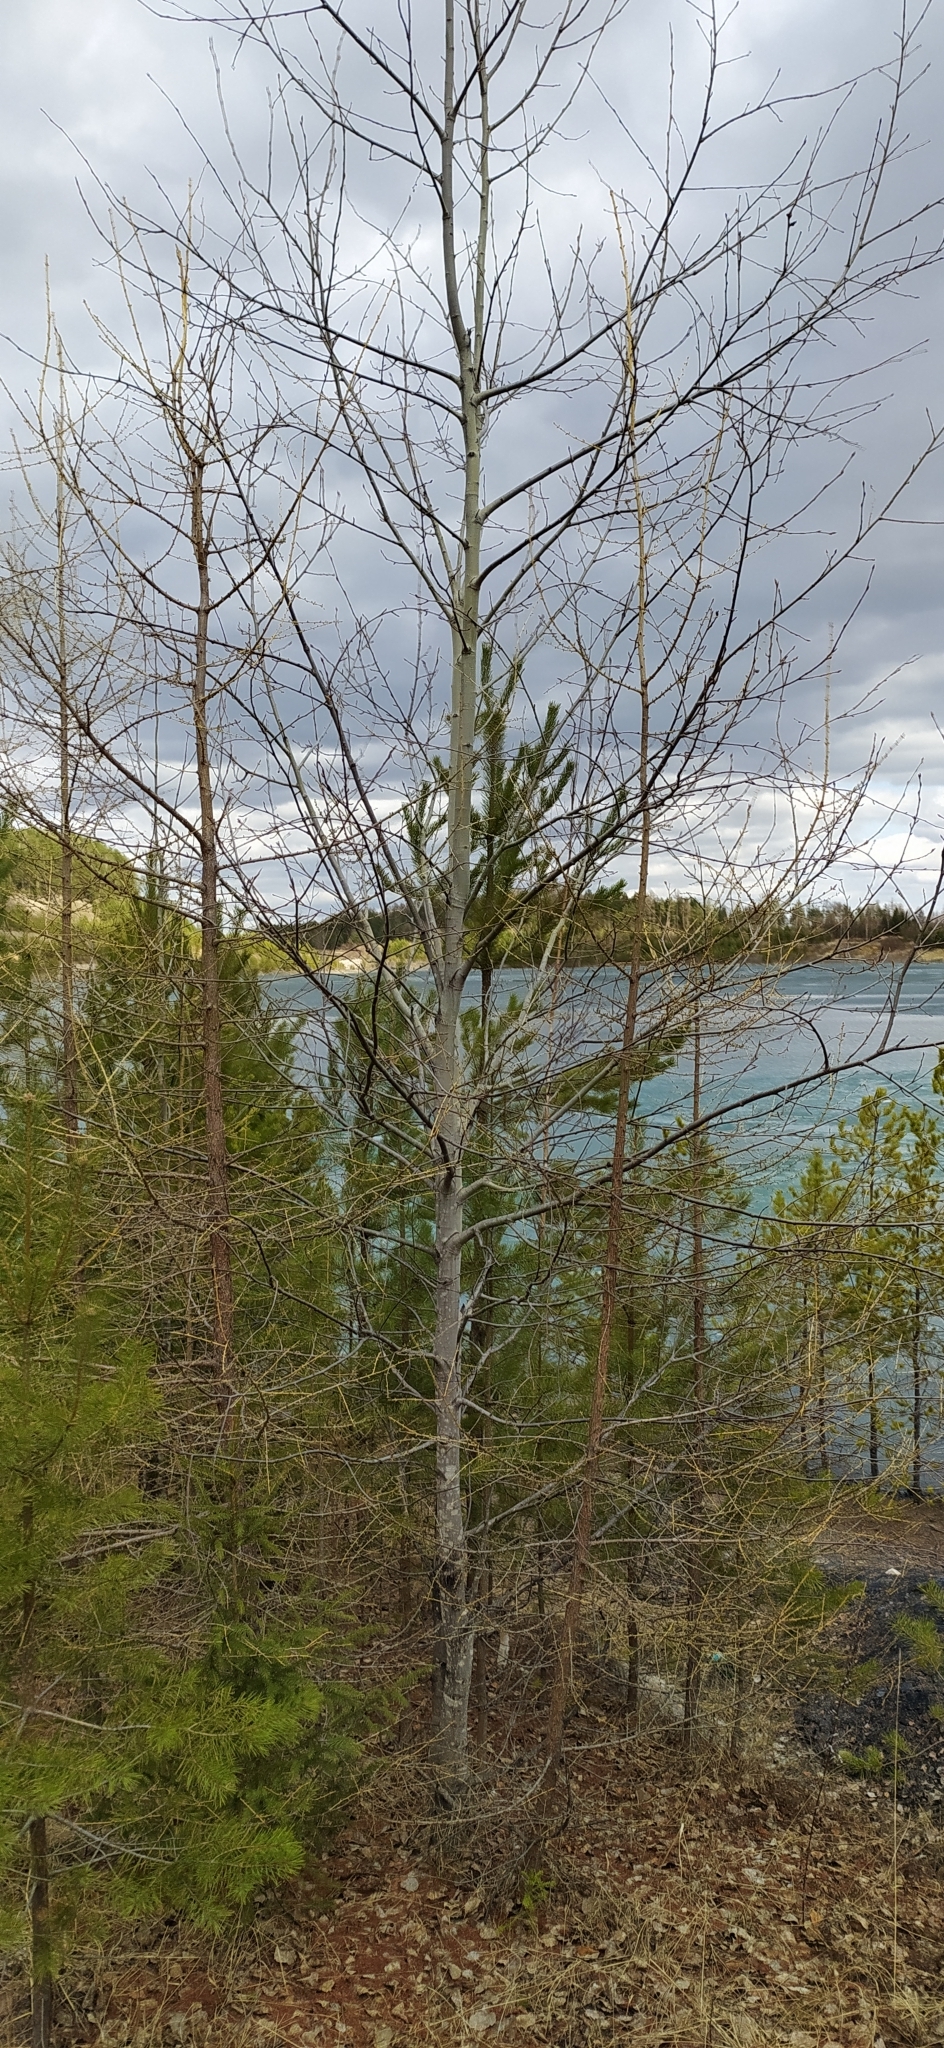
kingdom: Plantae
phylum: Tracheophyta
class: Pinopsida
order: Pinales
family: Pinaceae
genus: Larix
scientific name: Larix sibirica
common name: Siberian larch
